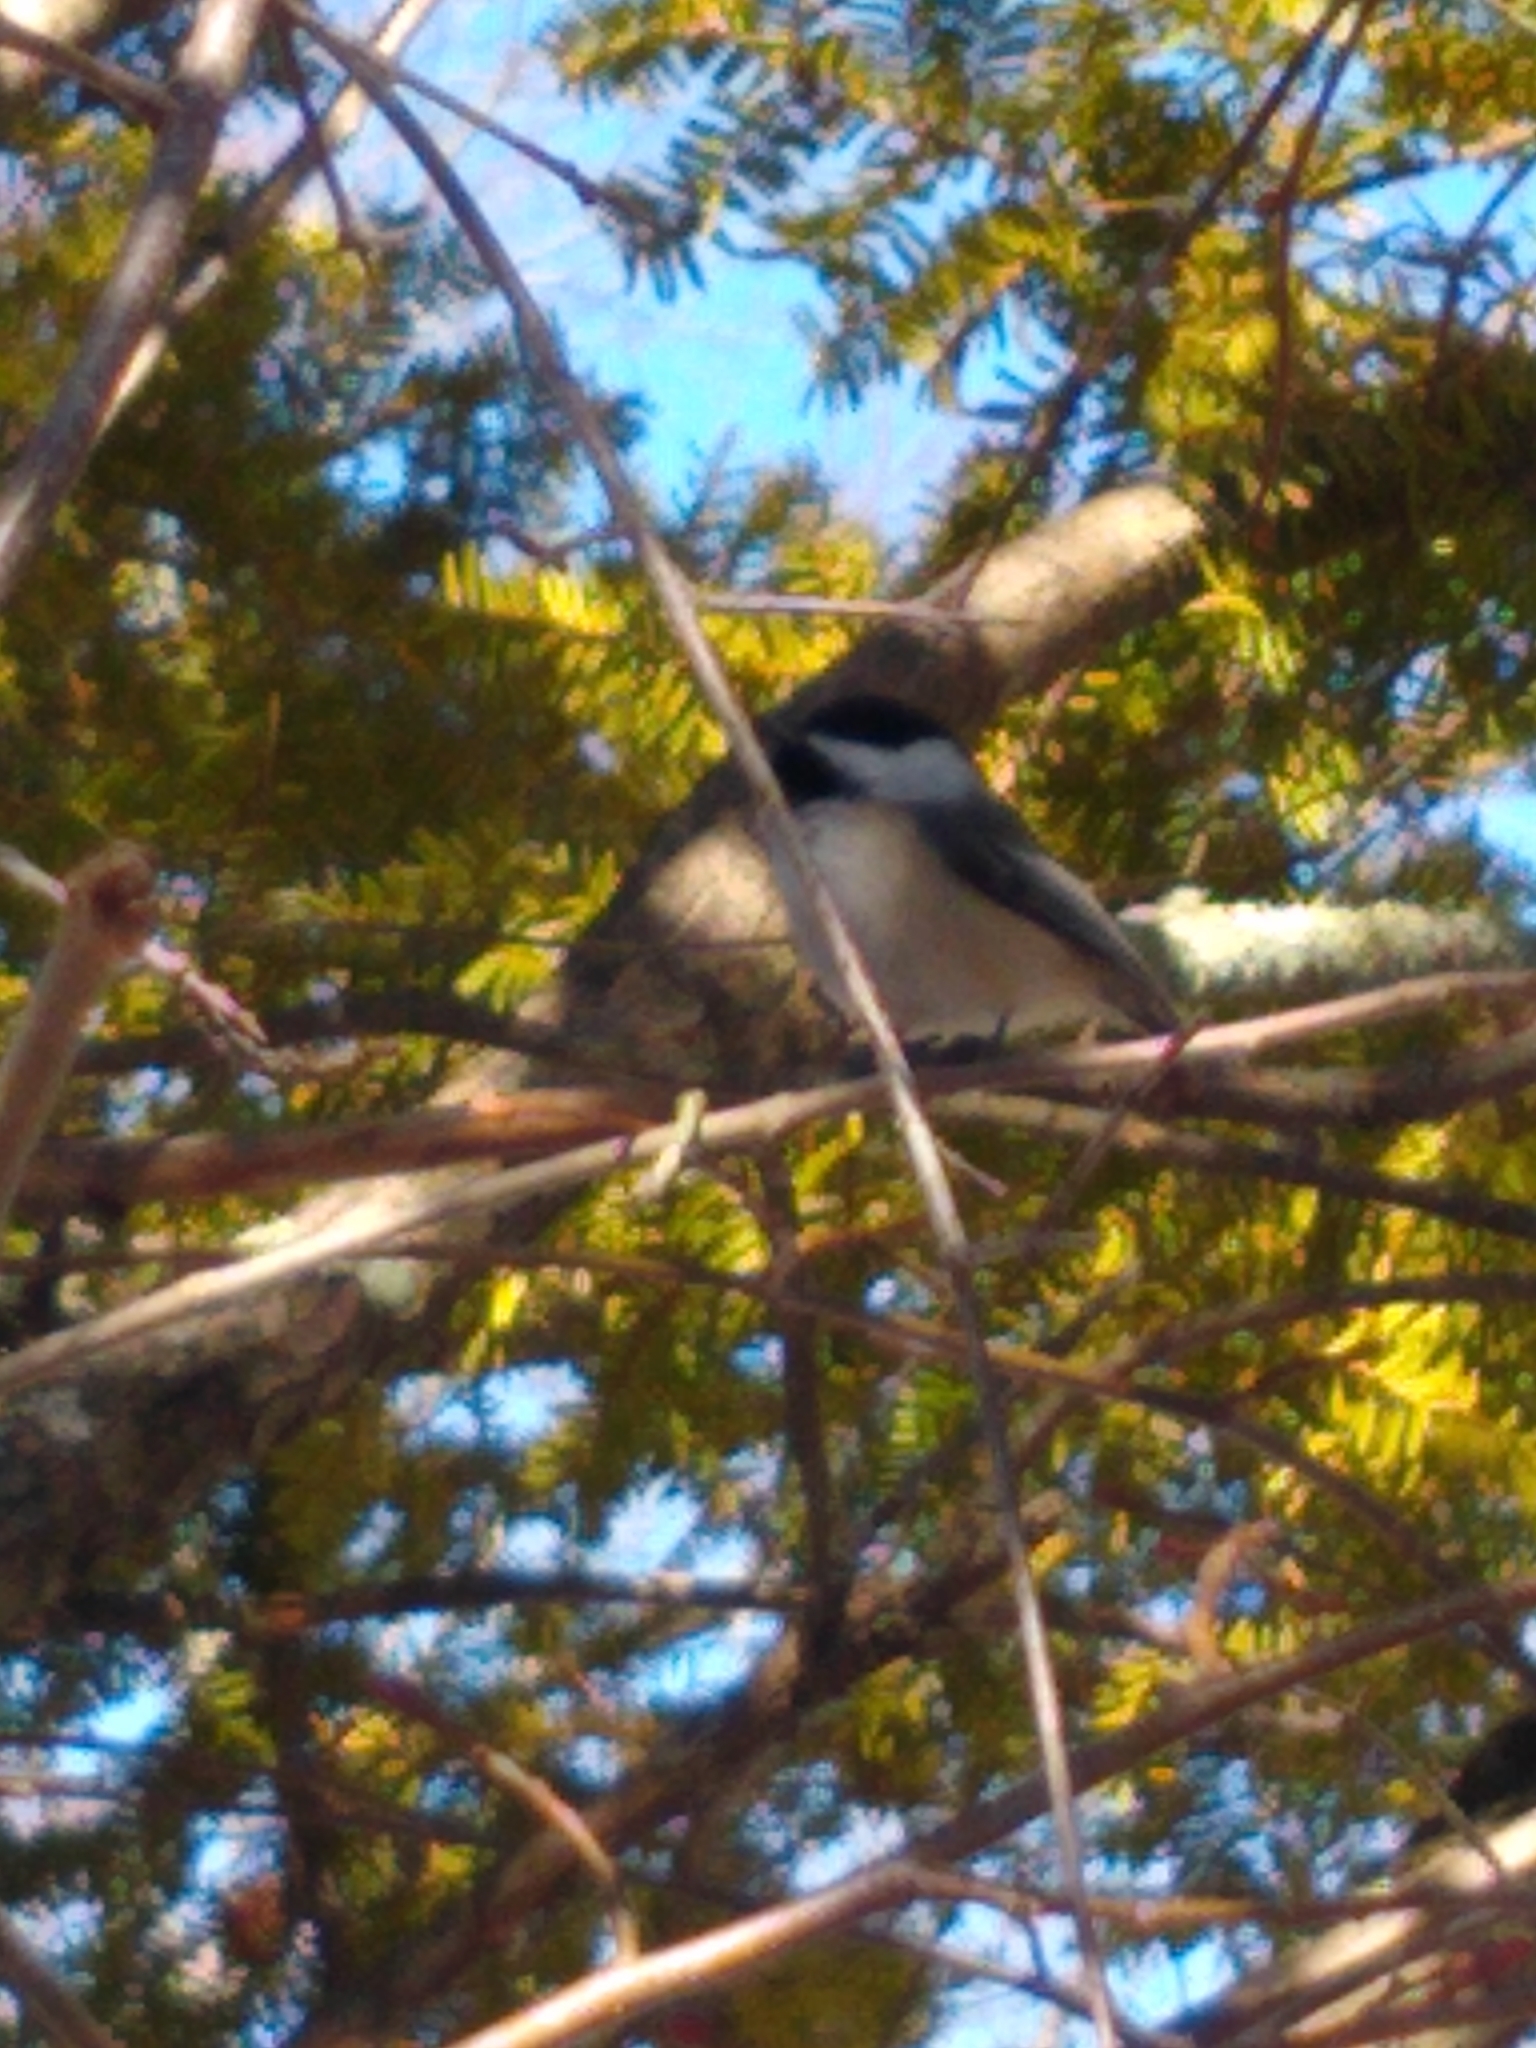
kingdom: Animalia
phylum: Chordata
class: Aves
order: Passeriformes
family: Paridae
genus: Poecile
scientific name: Poecile atricapillus
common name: Black-capped chickadee
